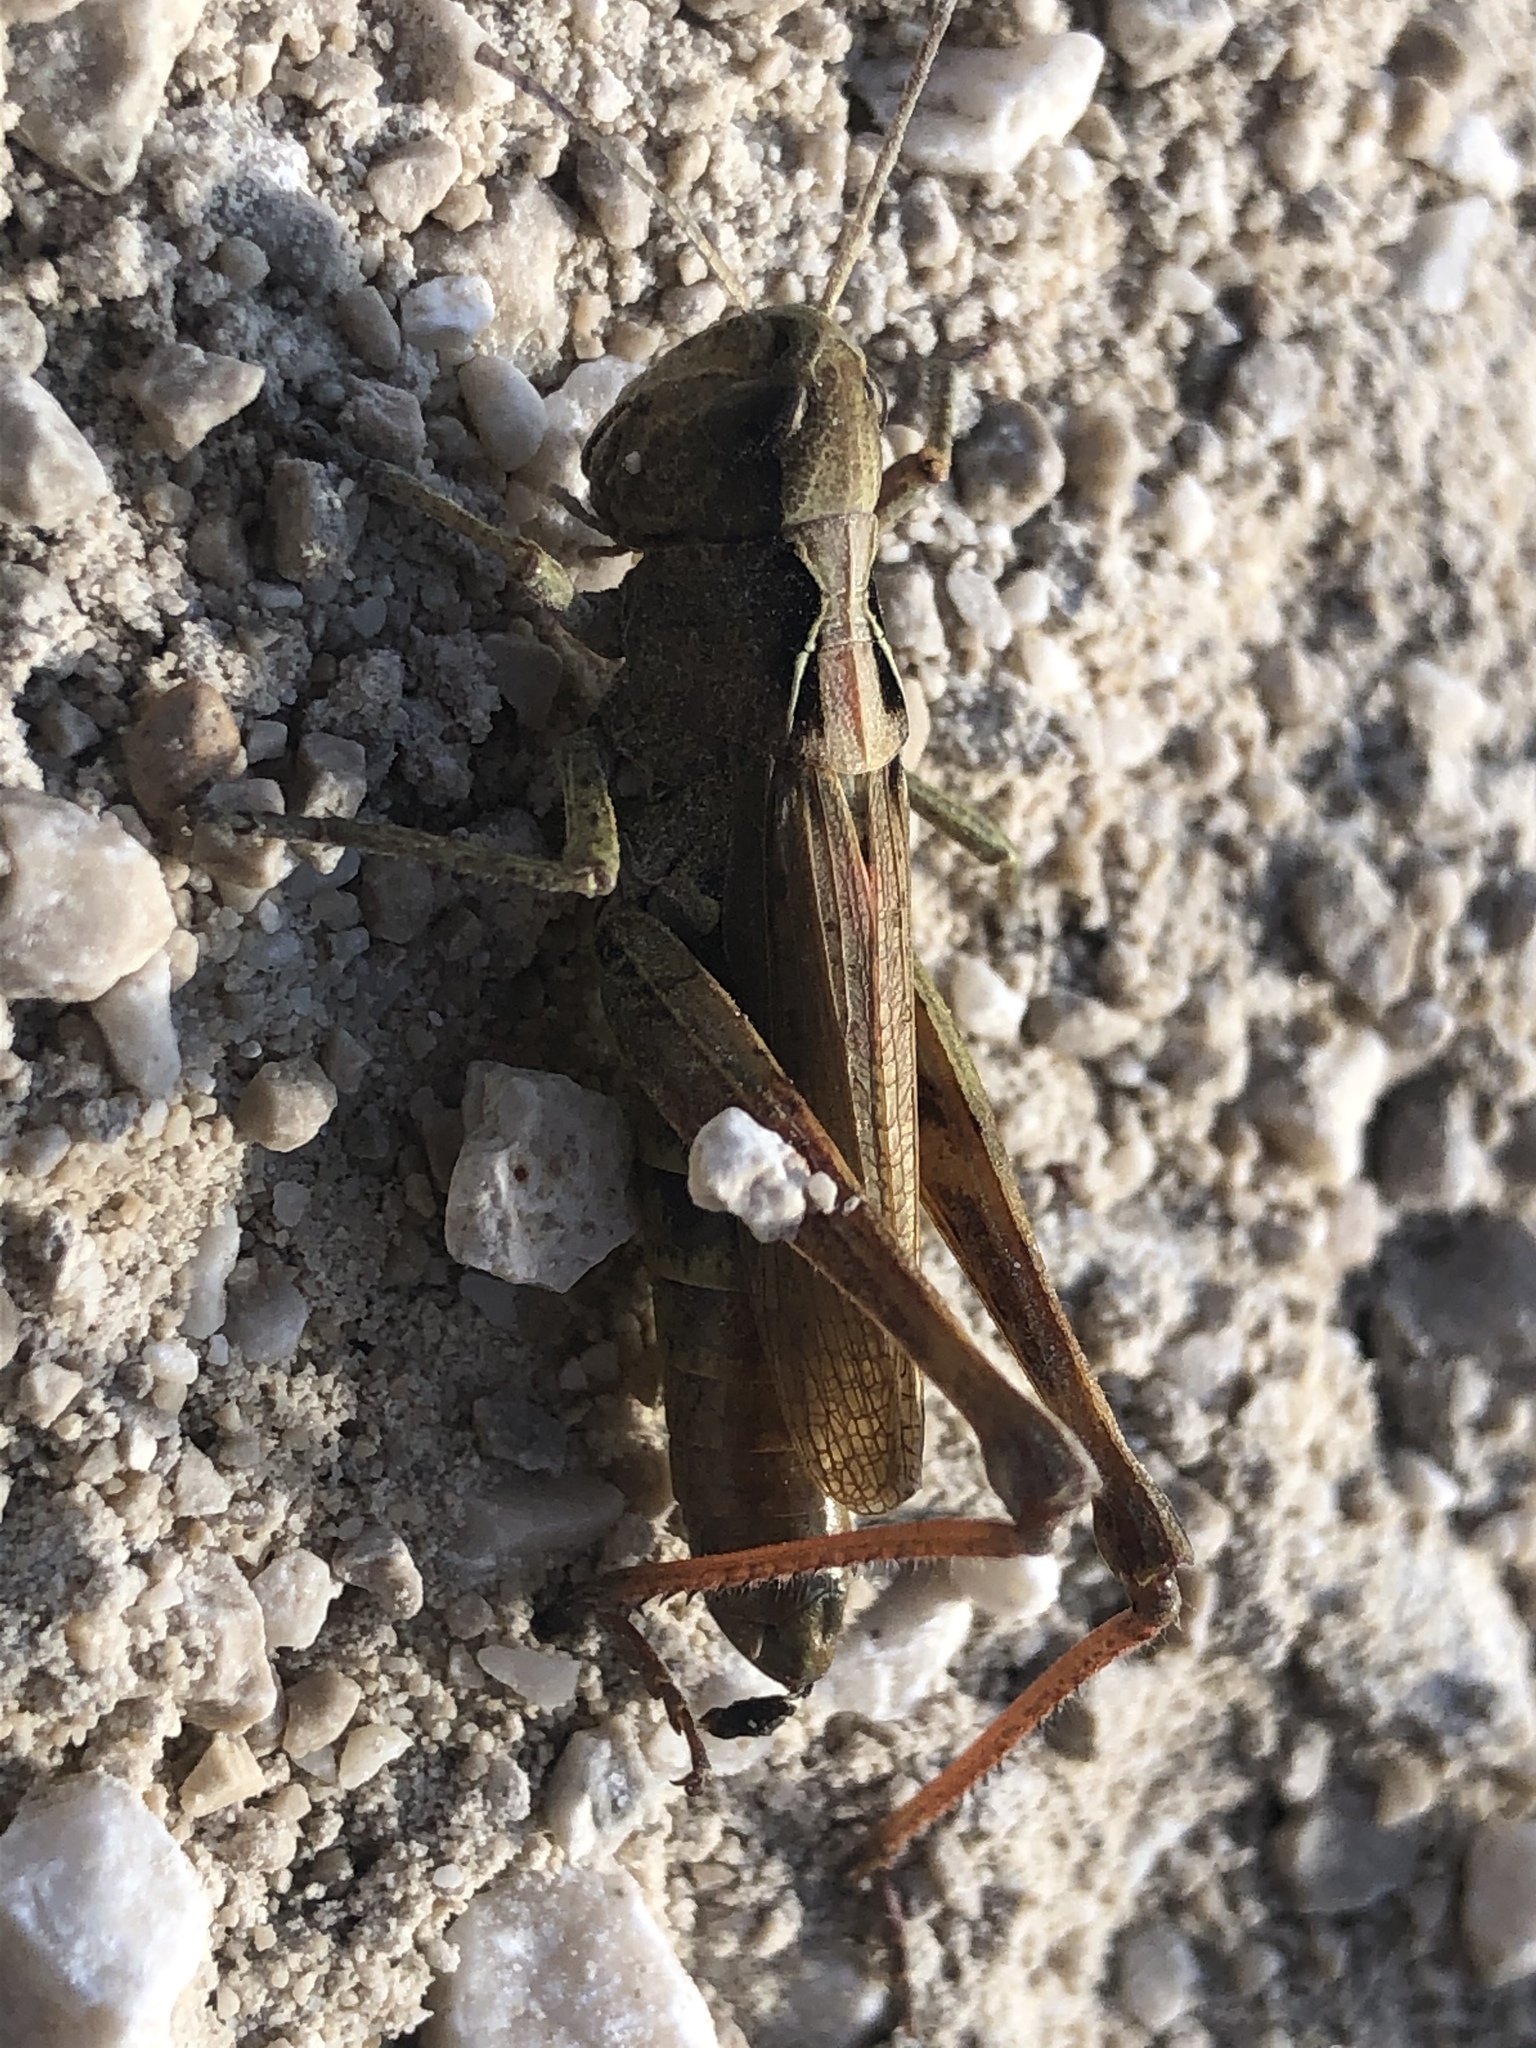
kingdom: Animalia
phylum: Arthropoda
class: Insecta
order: Orthoptera
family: Acrididae
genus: Gomphocerippus
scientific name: Gomphocerippus rufus
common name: Rufous grasshopper
